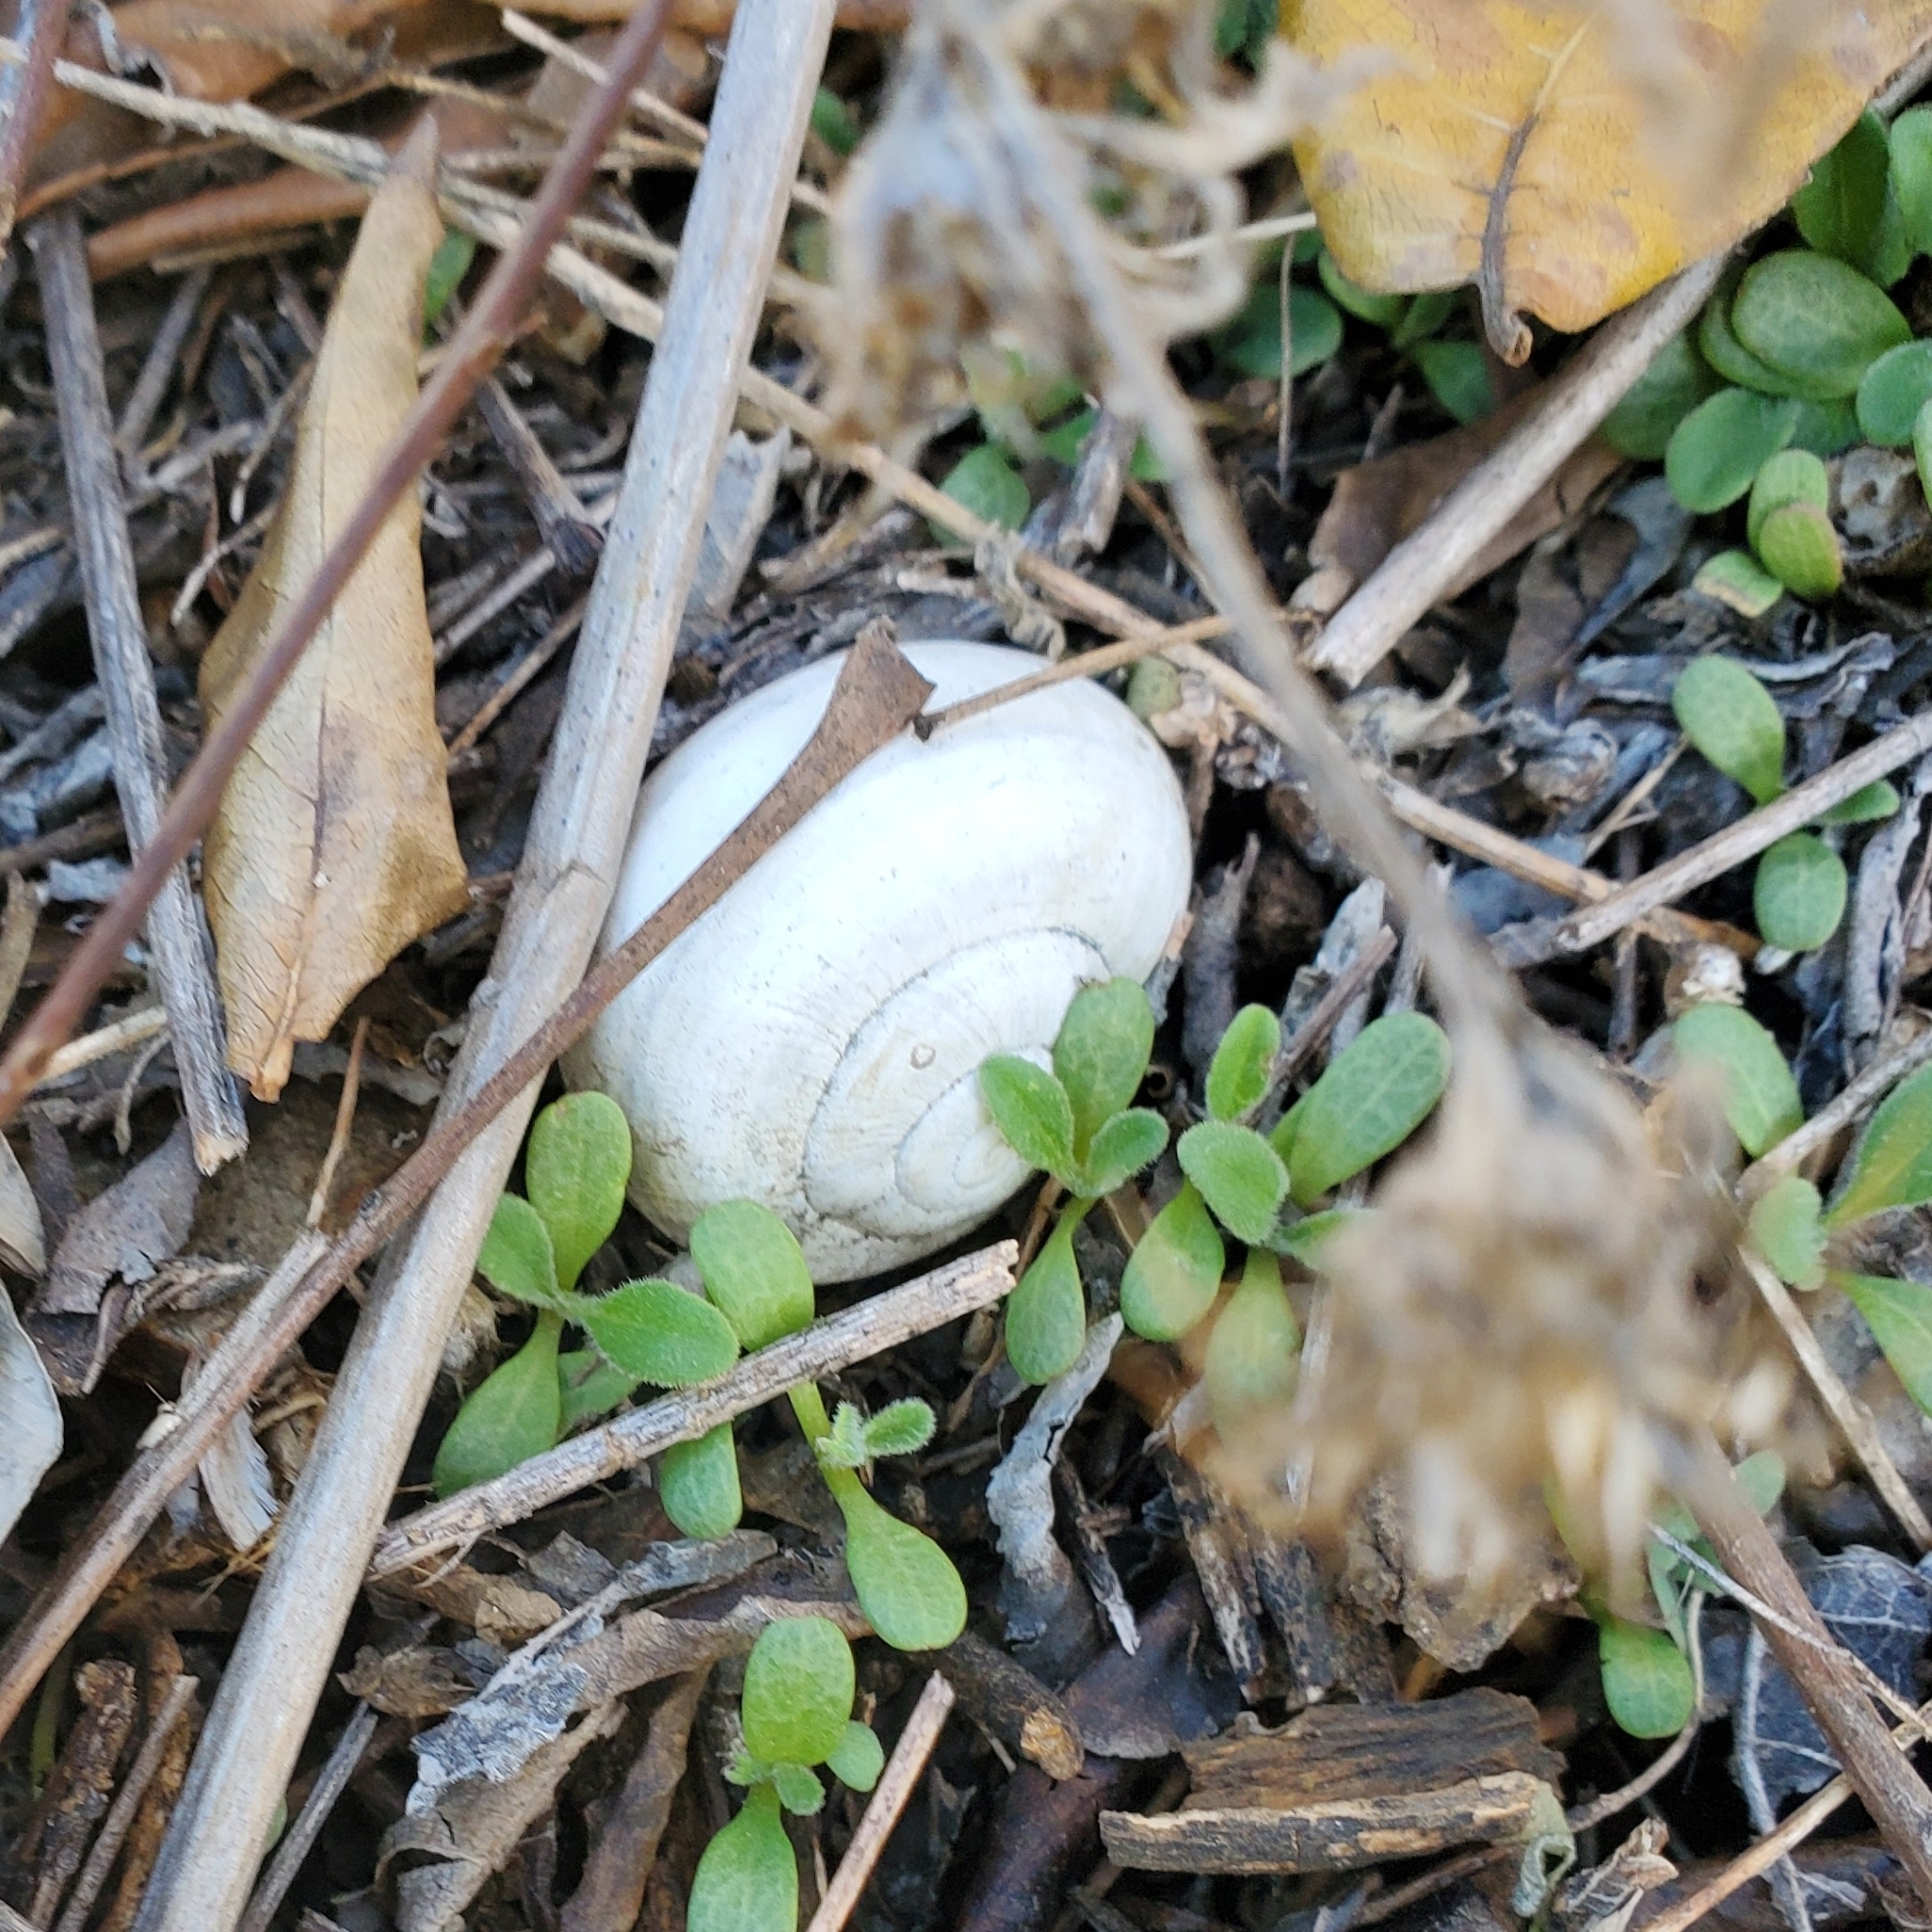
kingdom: Animalia
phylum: Mollusca
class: Gastropoda
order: Stylommatophora
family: Helicidae
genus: Otala
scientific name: Otala lactea
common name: Milk snail
